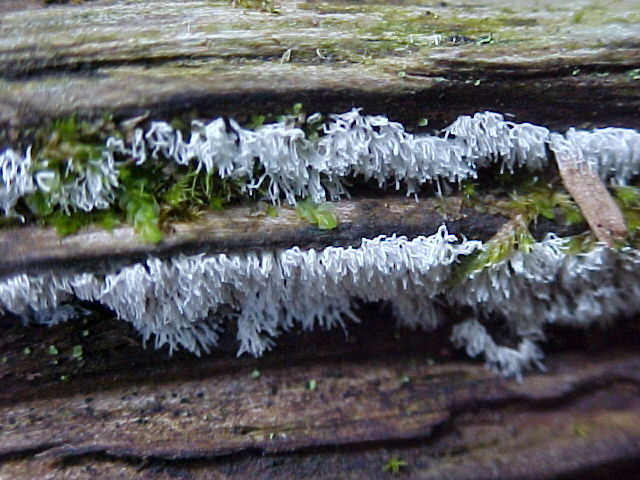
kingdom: Protozoa
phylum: Mycetozoa
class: Protosteliomycetes
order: Ceratiomyxales
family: Ceratiomyxaceae
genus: Ceratiomyxa
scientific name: Ceratiomyxa fruticulosa
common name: Honeycomb coral slime mold
